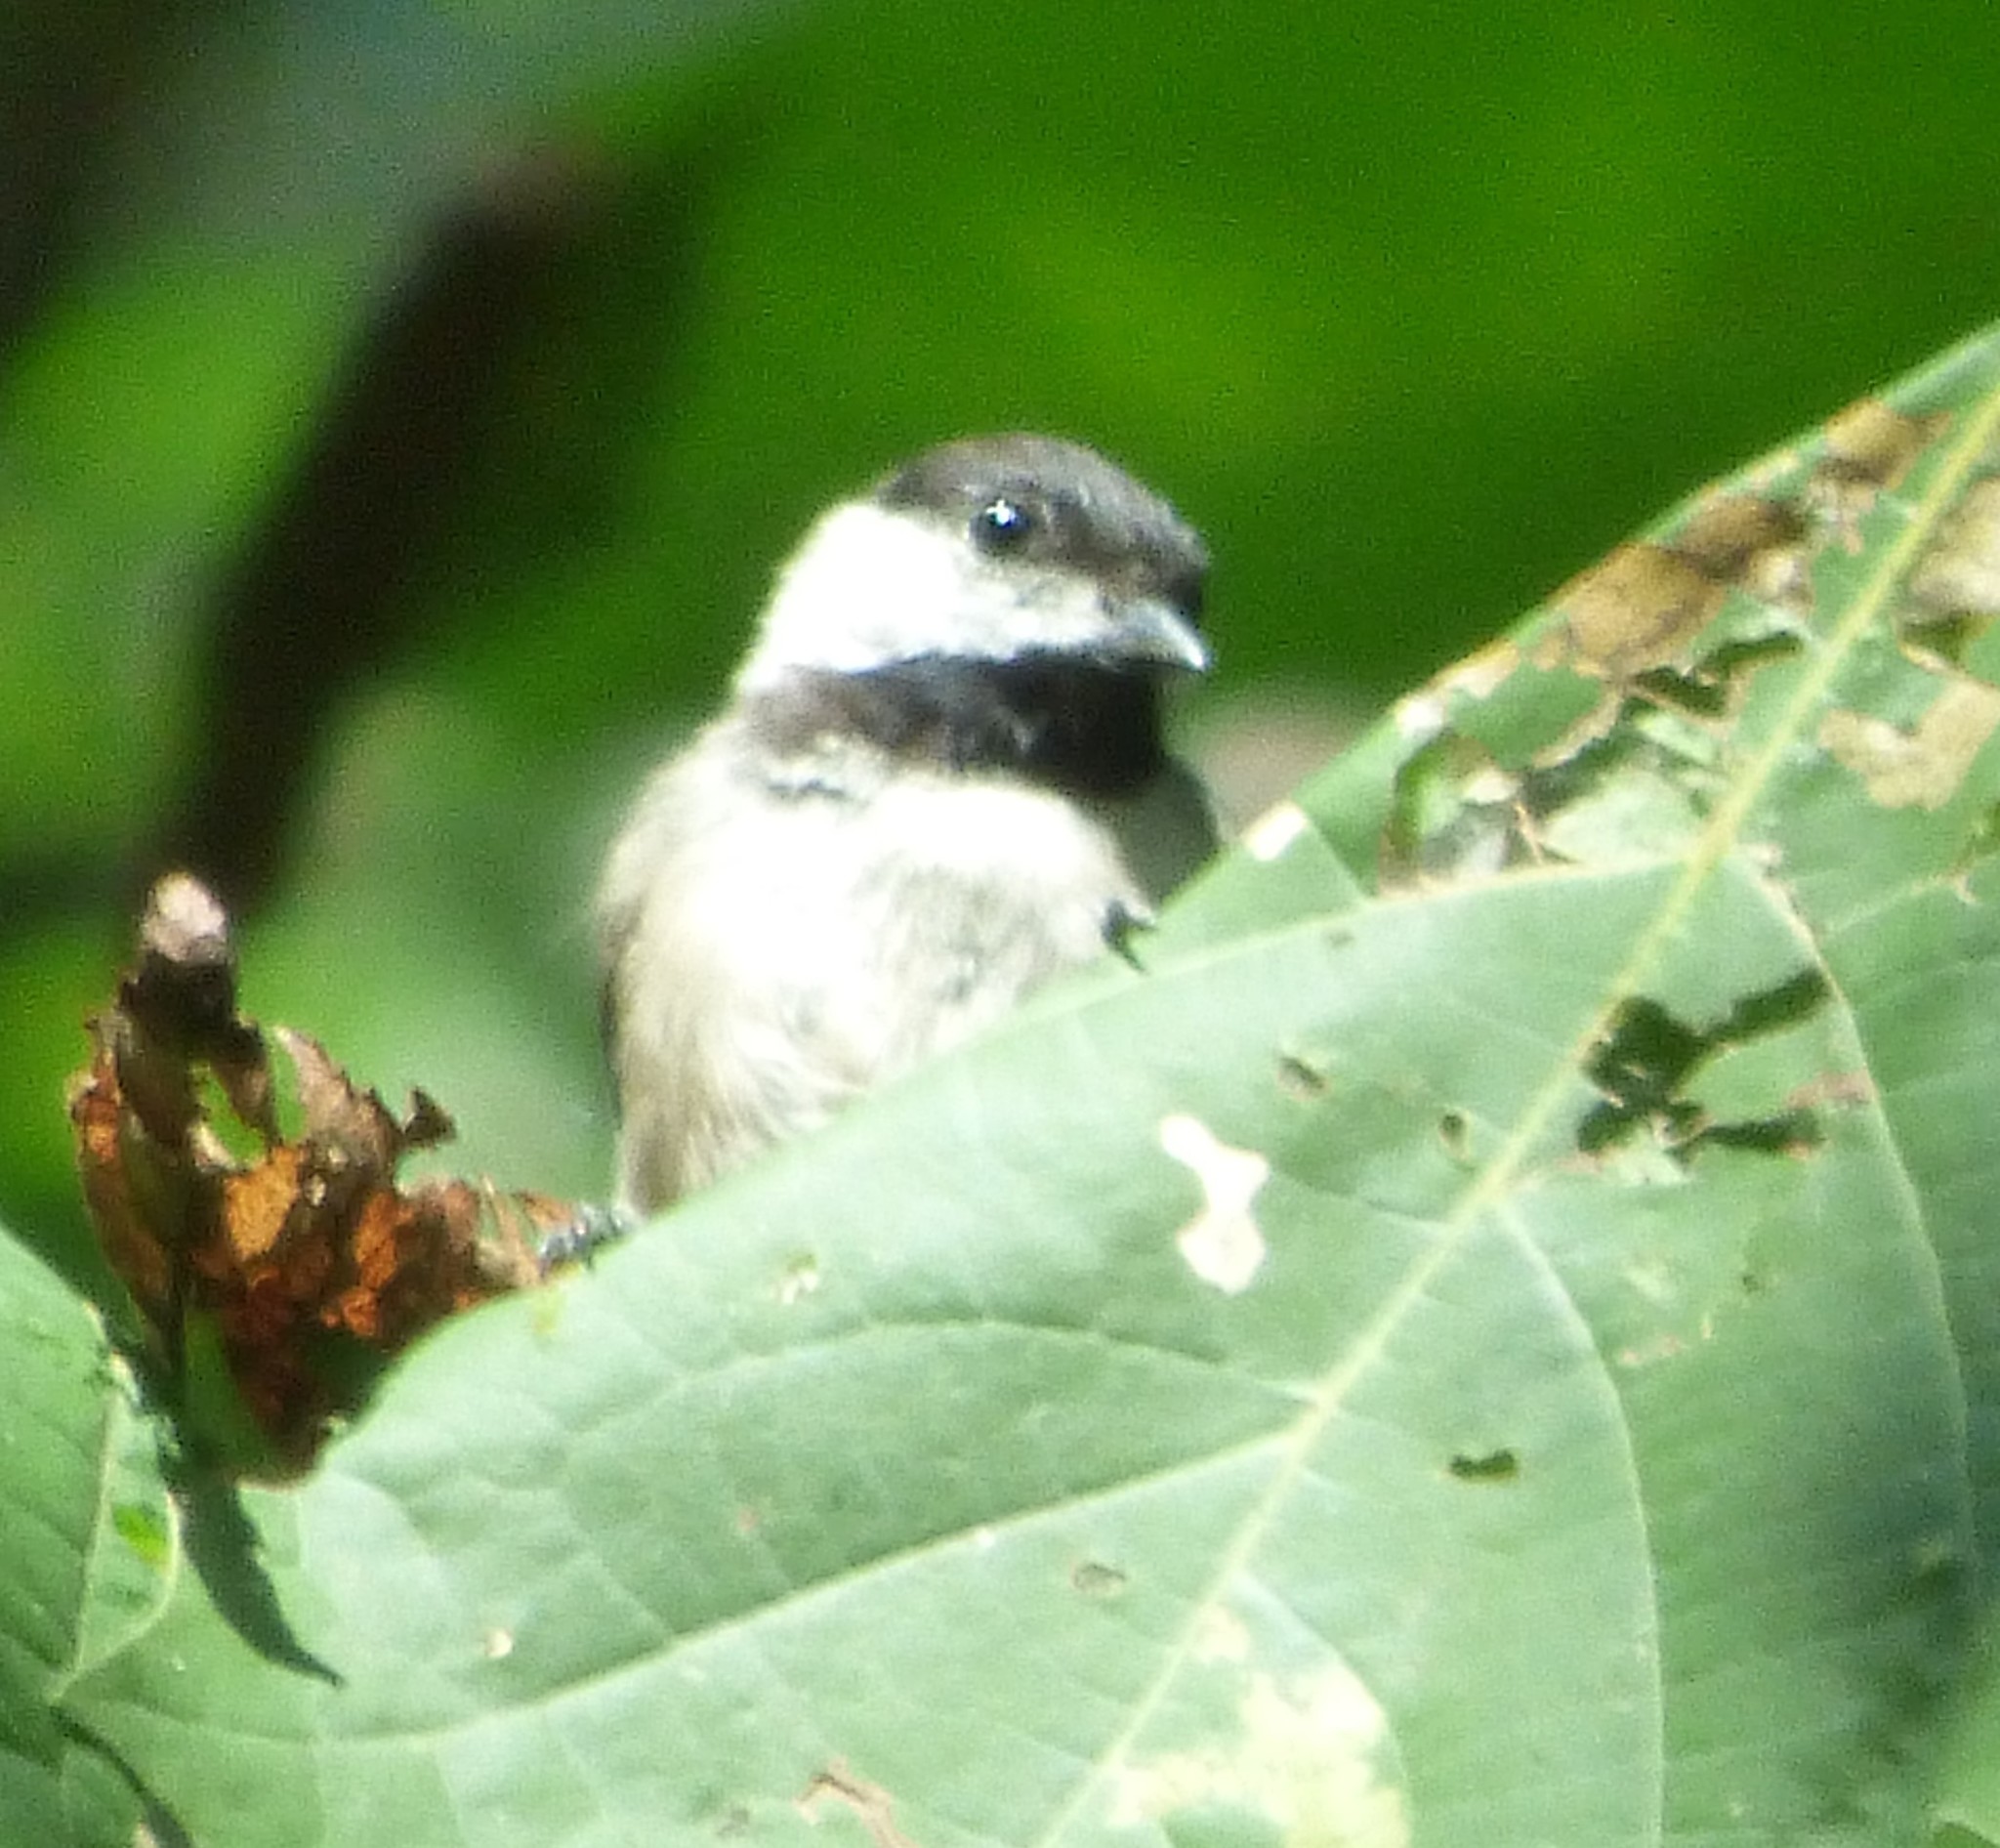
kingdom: Animalia
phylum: Chordata
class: Aves
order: Passeriformes
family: Paridae
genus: Poecile
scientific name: Poecile carolinensis
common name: Carolina chickadee
